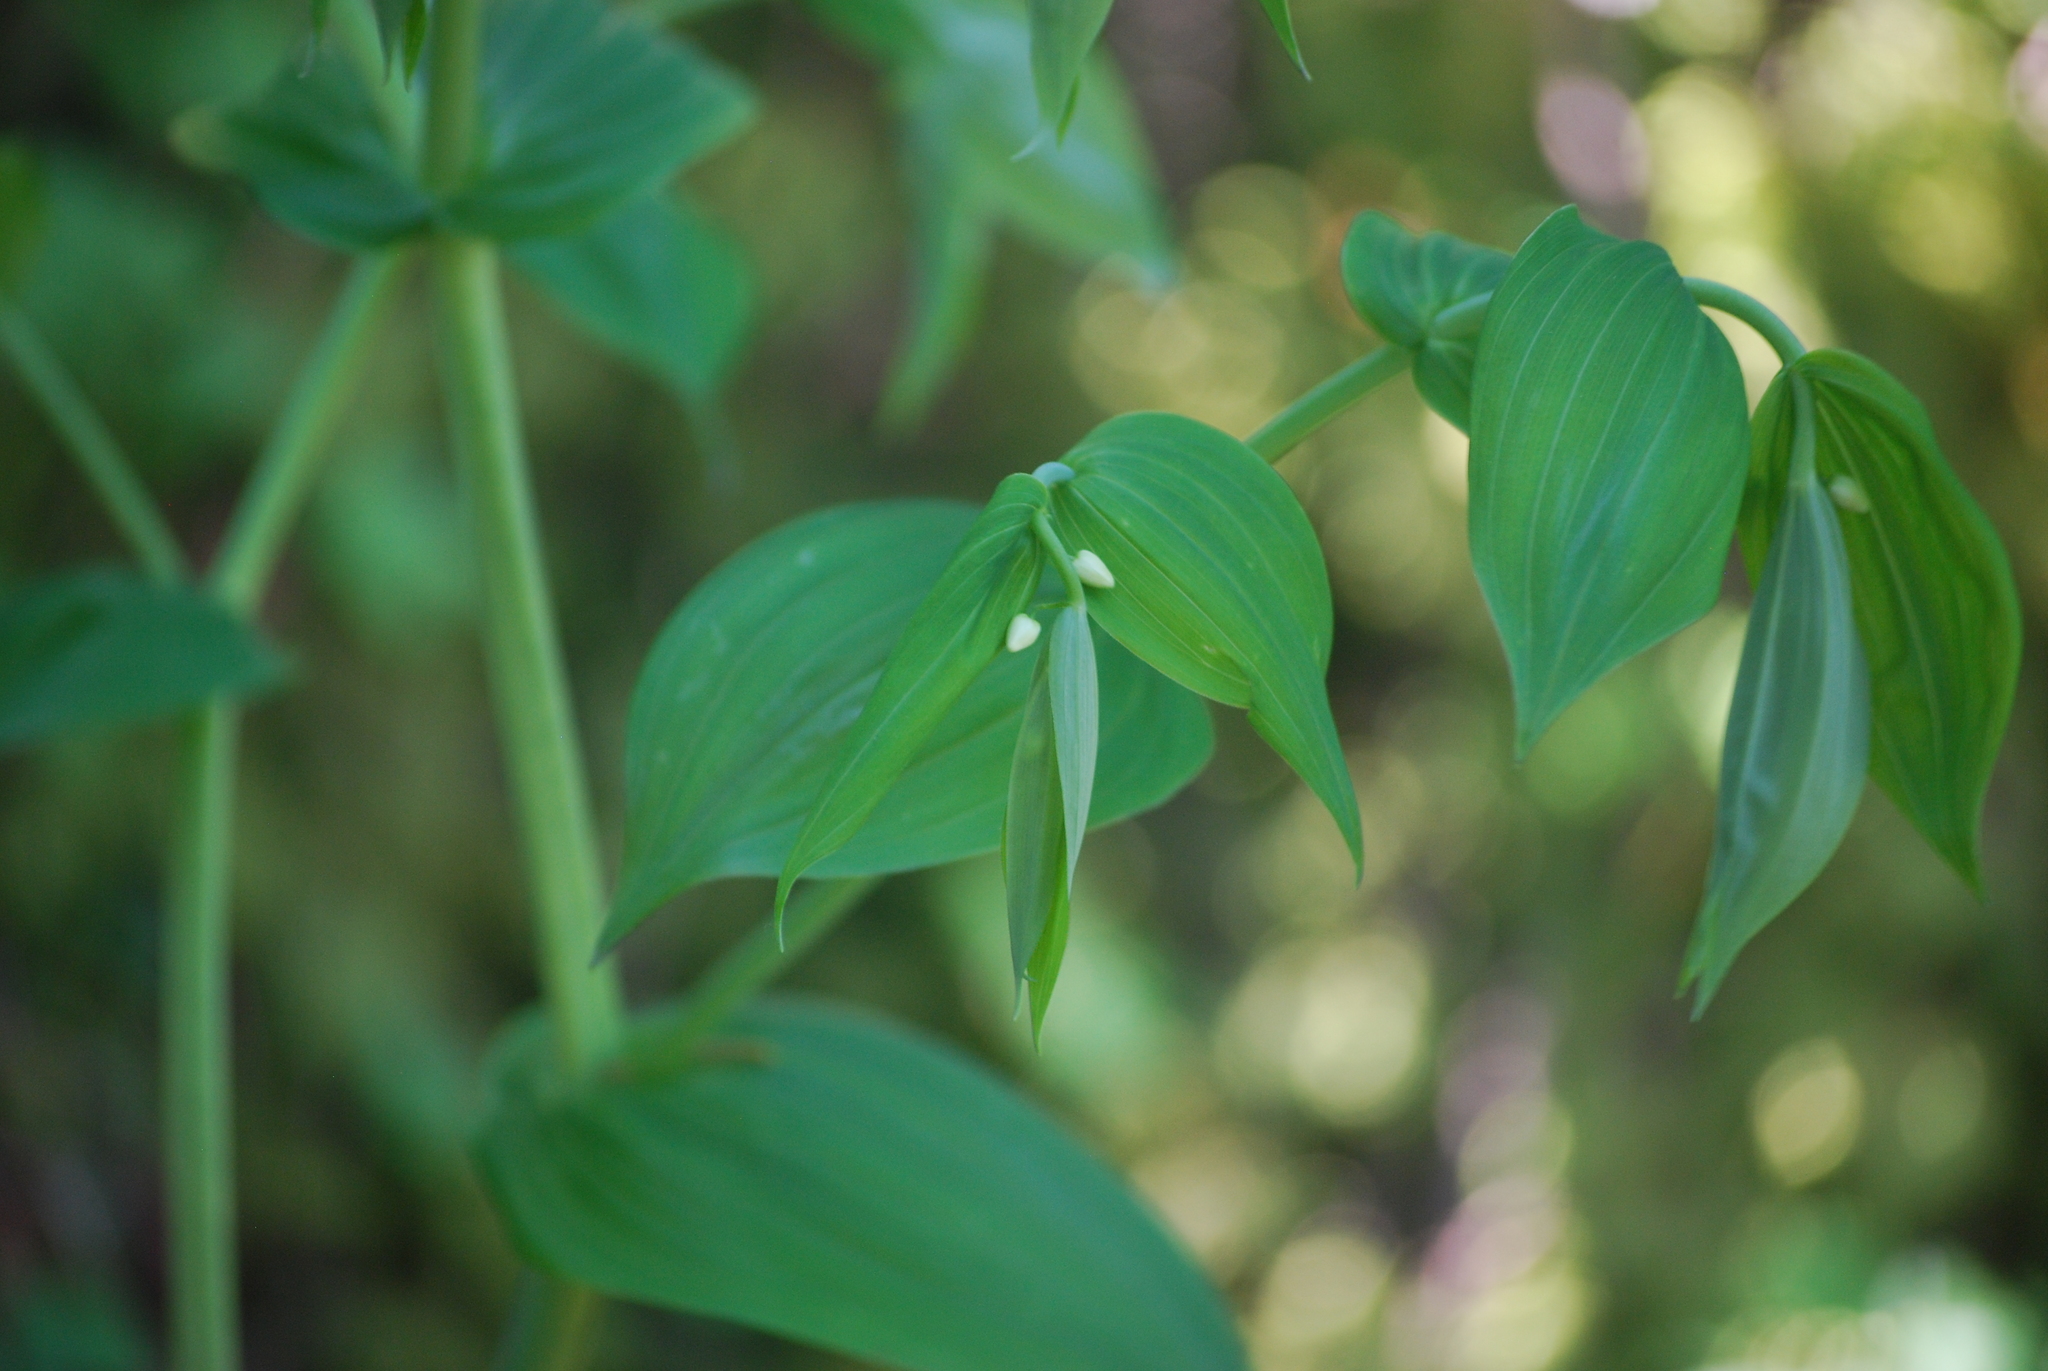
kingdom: Plantae
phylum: Tracheophyta
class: Liliopsida
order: Liliales
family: Liliaceae
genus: Streptopus
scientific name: Streptopus amplexifolius
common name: Clasp twisted stalk
